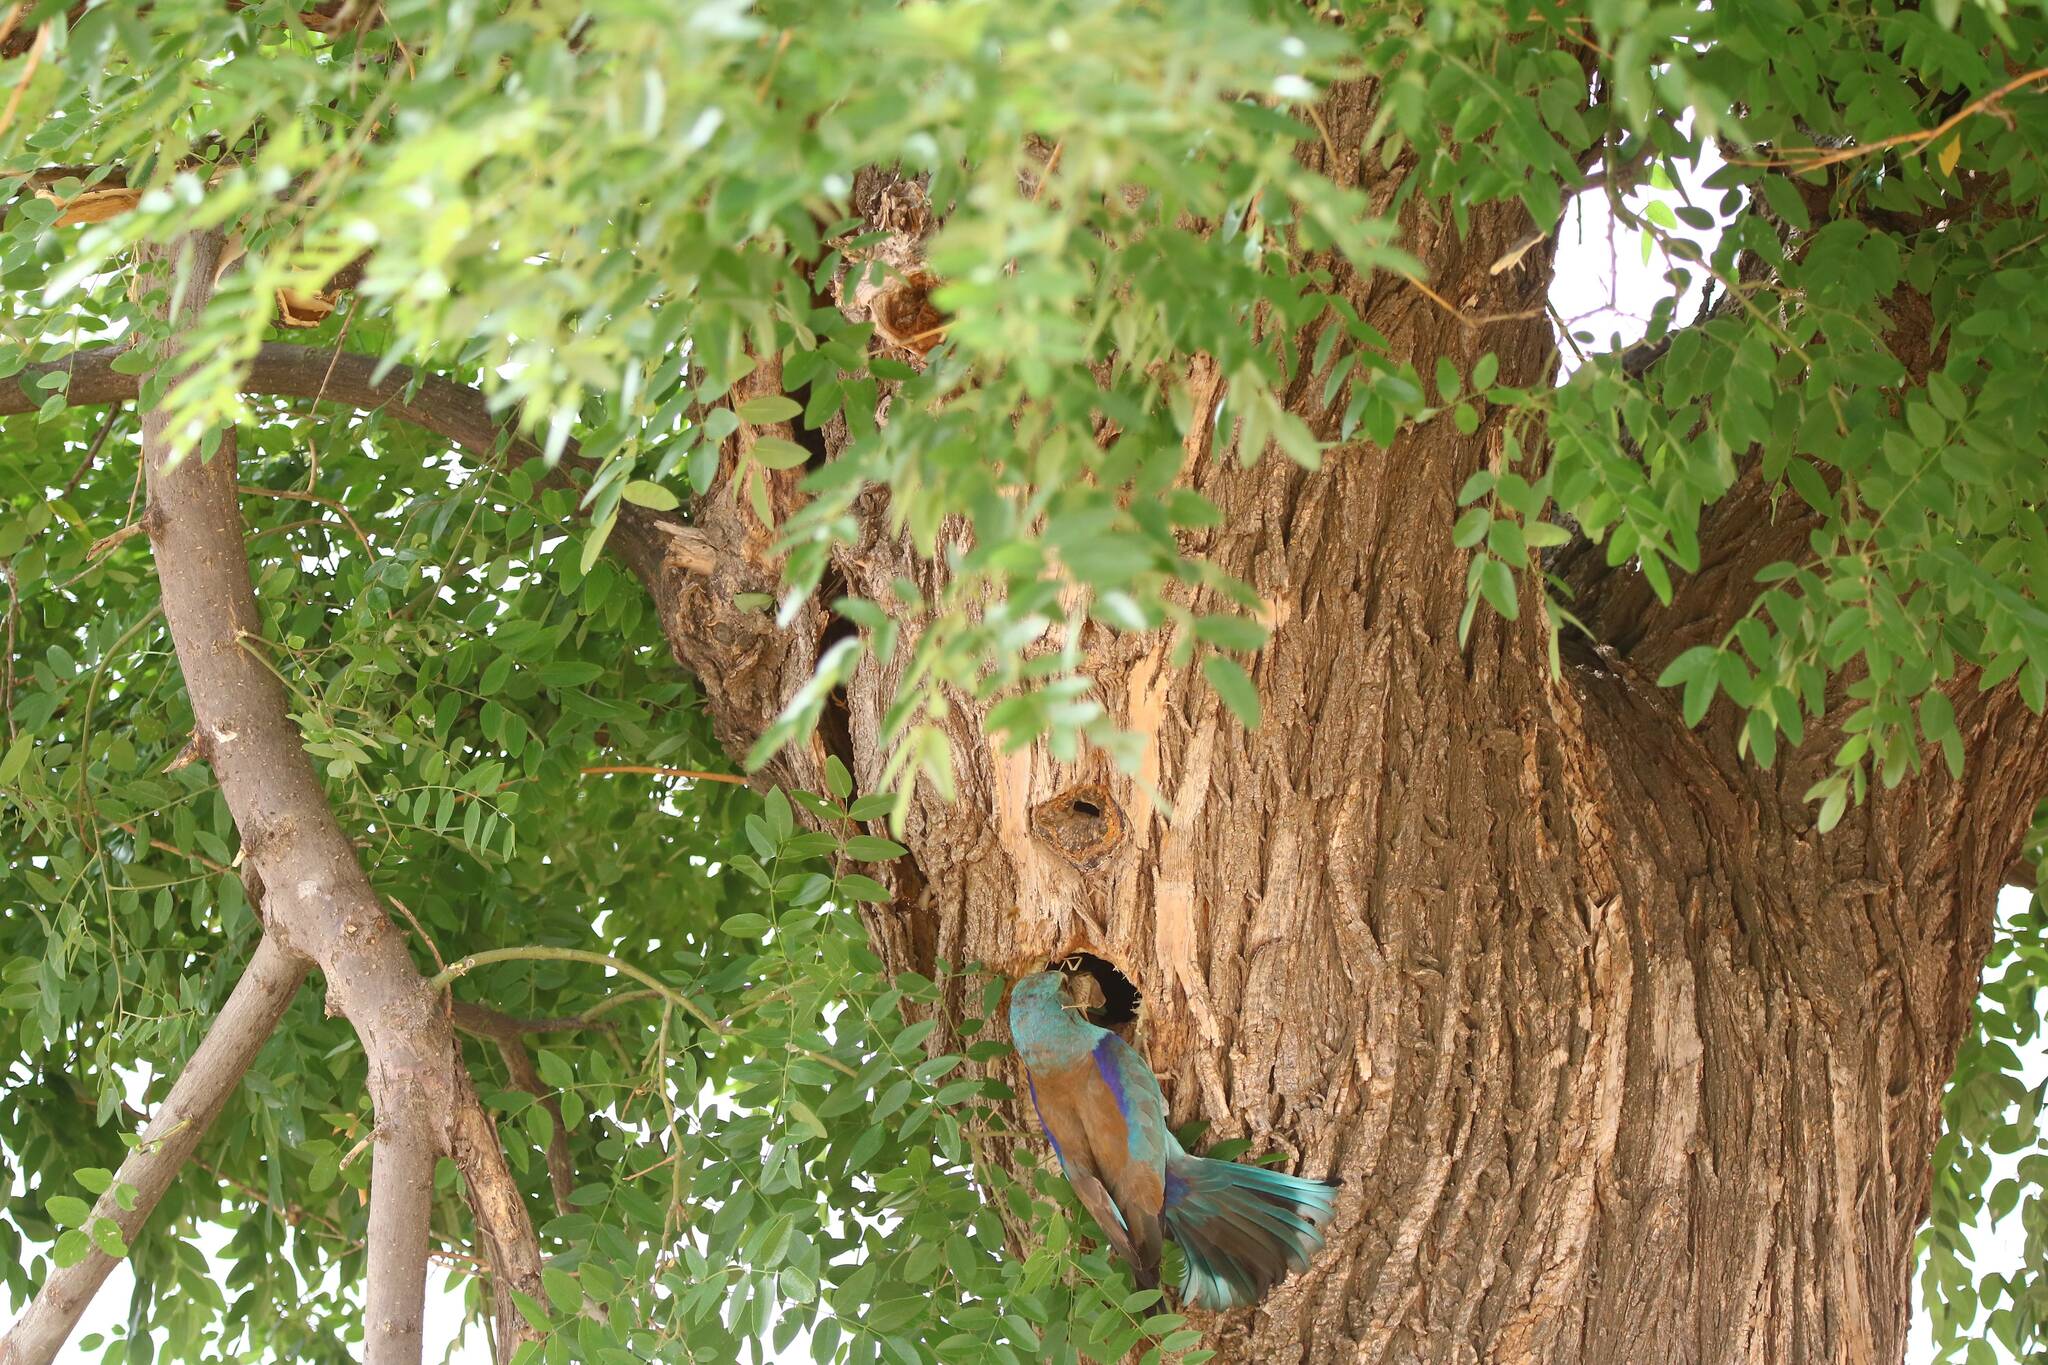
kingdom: Animalia
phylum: Chordata
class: Aves
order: Coraciiformes
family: Coraciidae
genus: Coracias
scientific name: Coracias garrulus
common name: European roller
